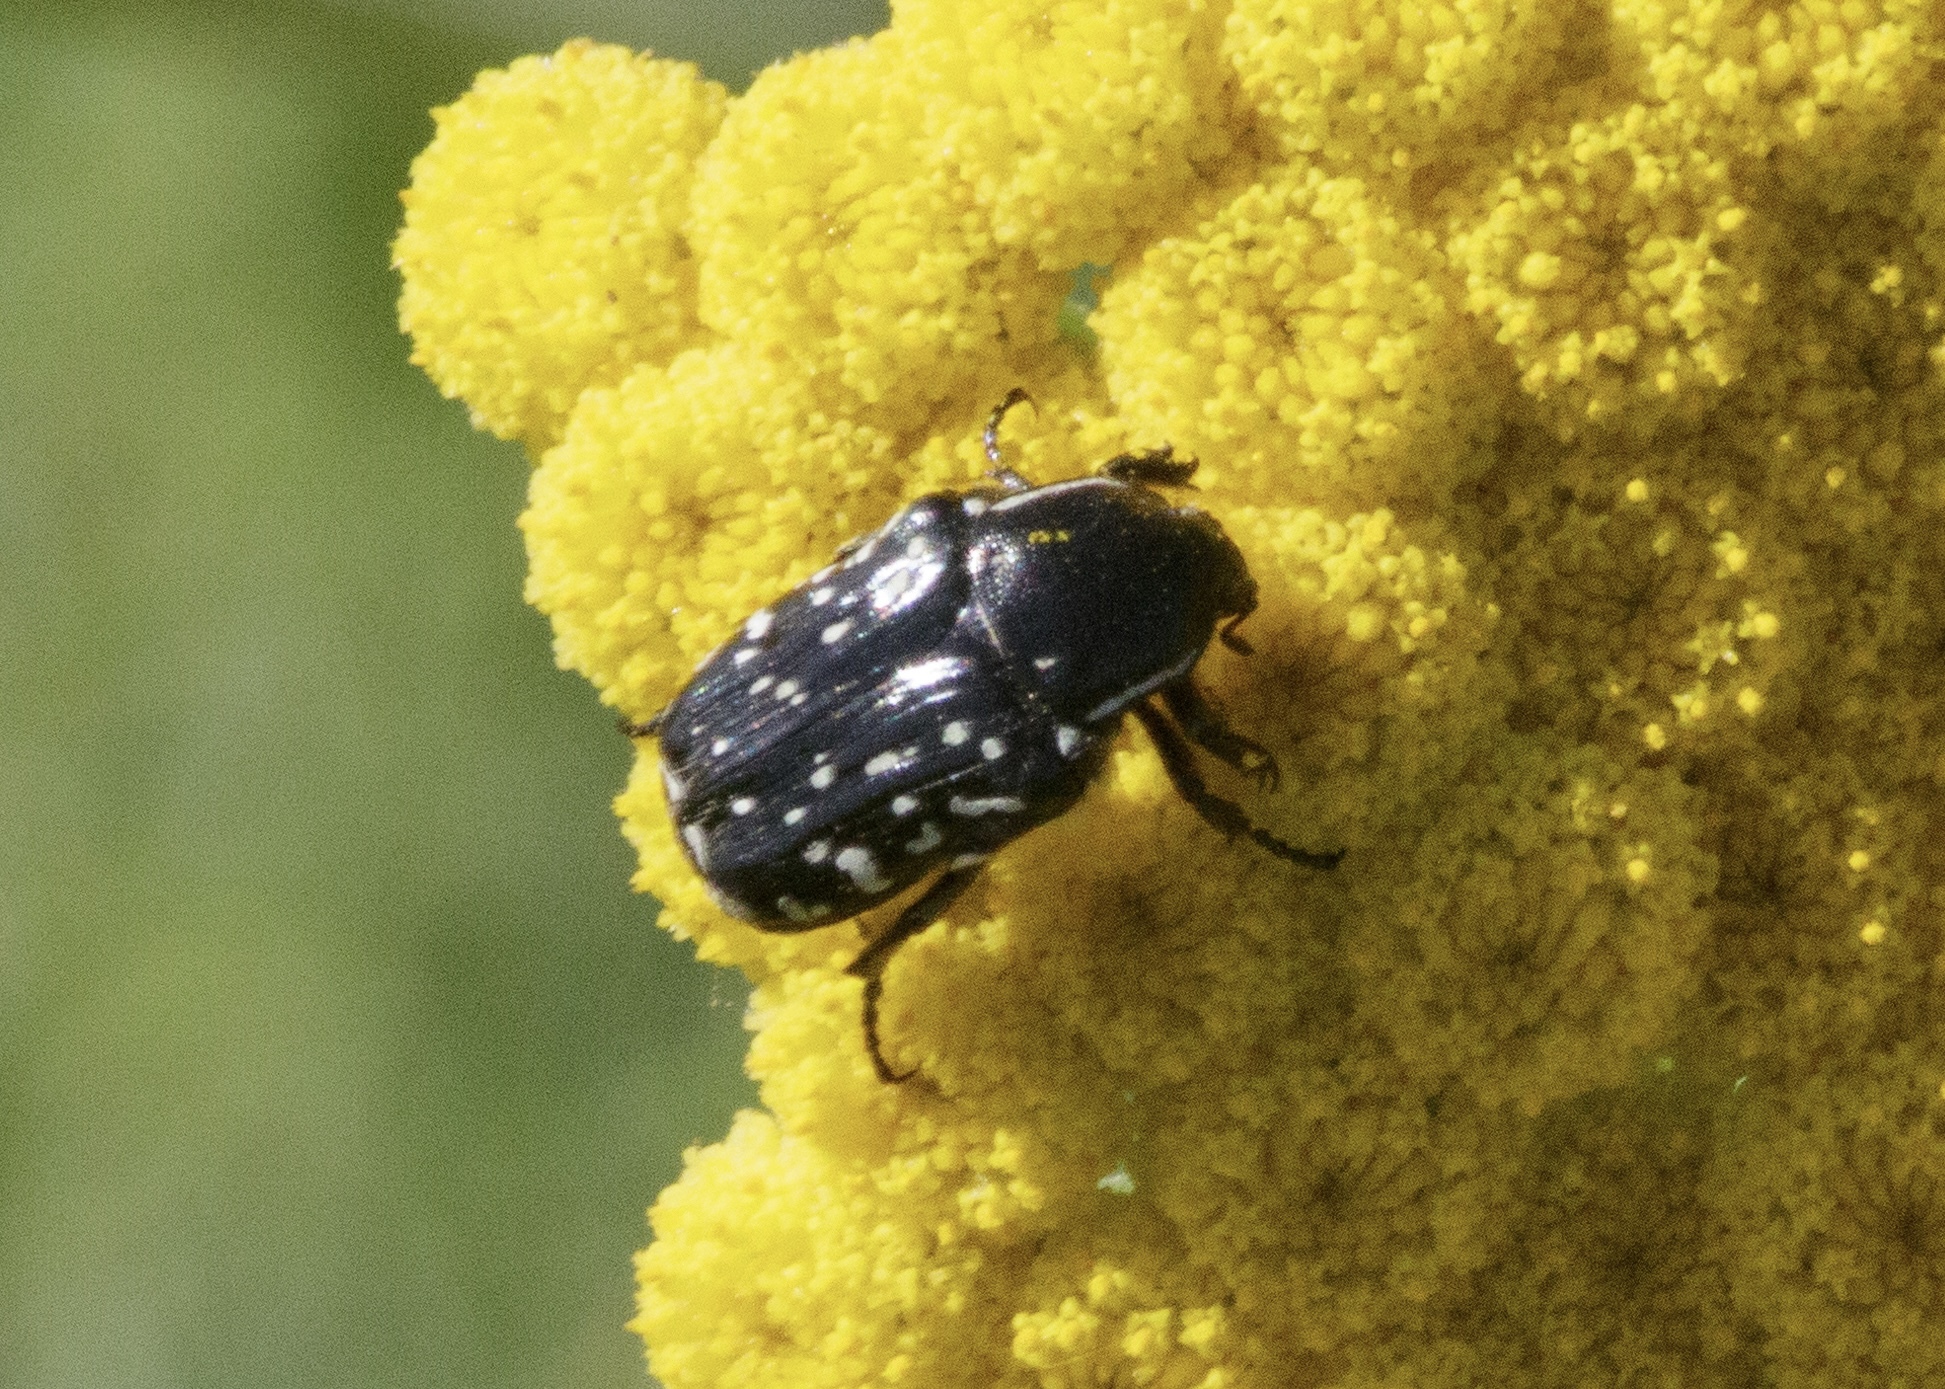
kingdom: Animalia
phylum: Arthropoda
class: Insecta
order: Coleoptera
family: Scarabaeidae
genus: Oxythyrea
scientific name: Oxythyrea cinctella
